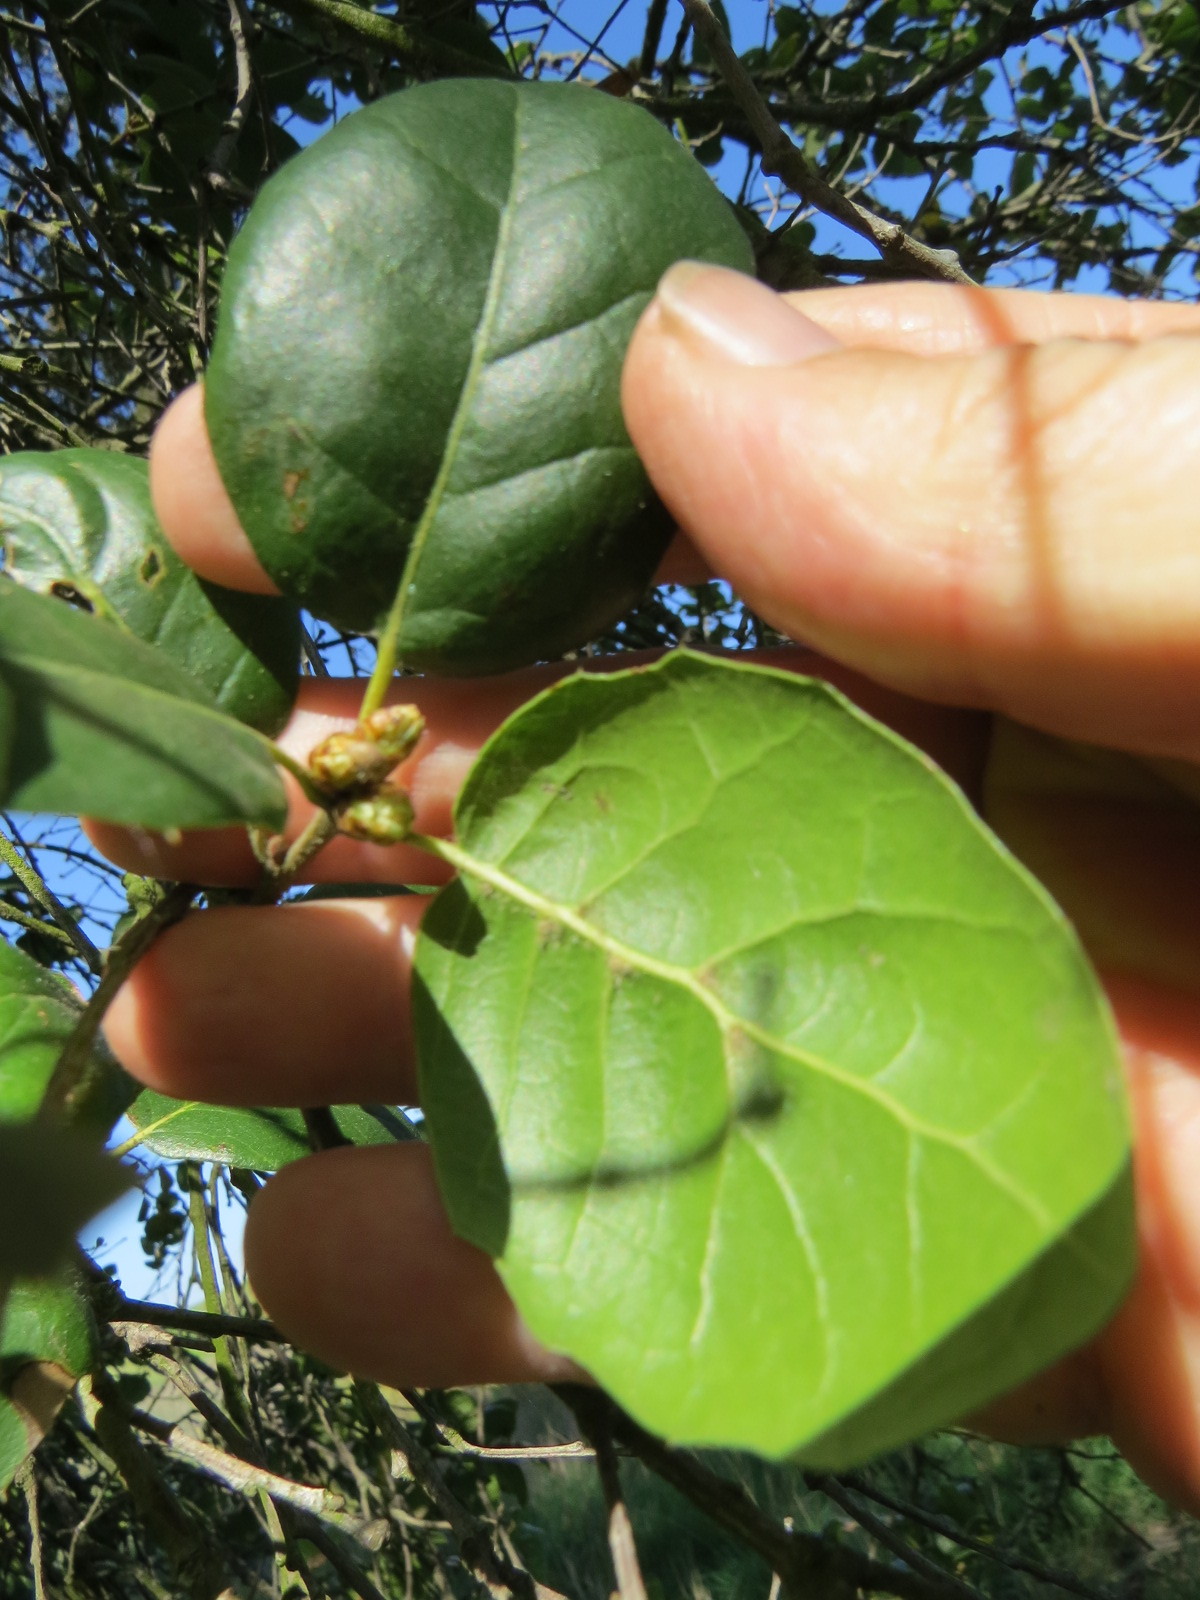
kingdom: Plantae
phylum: Tracheophyta
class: Magnoliopsida
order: Fagales
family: Fagaceae
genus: Quercus
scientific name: Quercus agrifolia
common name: California live oak
